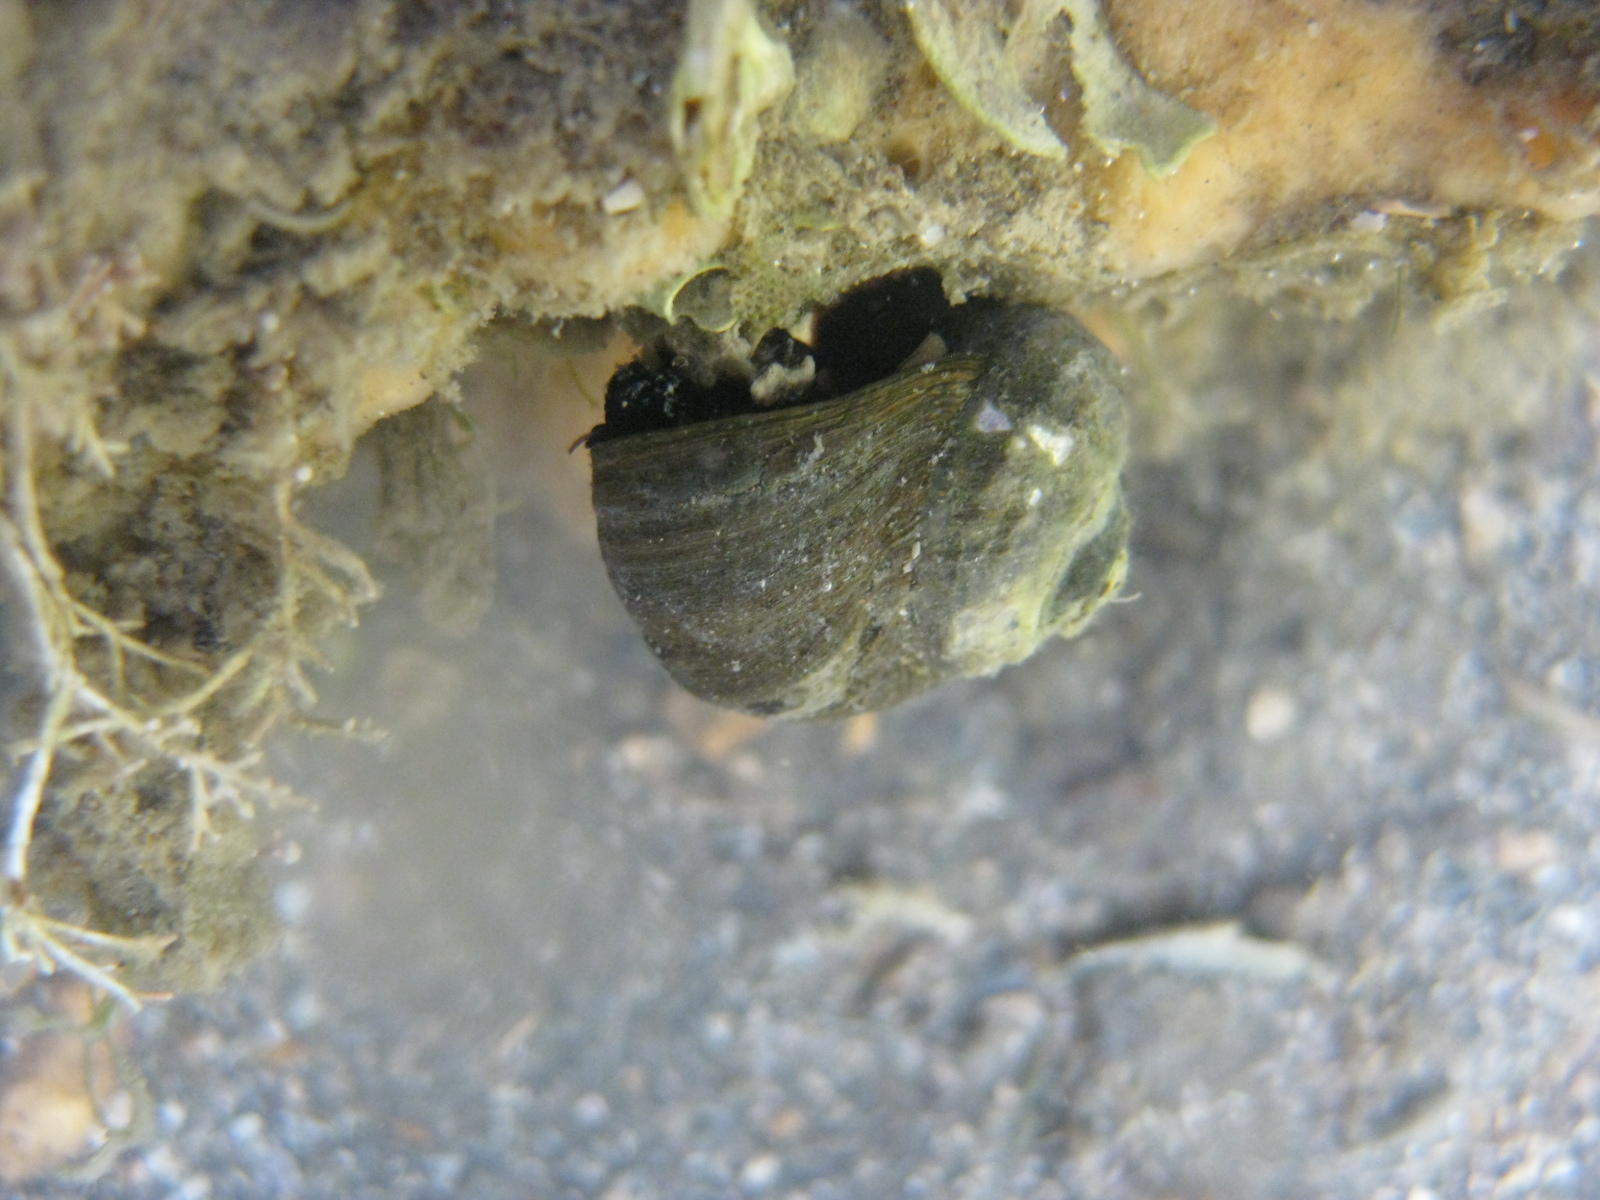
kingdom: Animalia
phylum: Mollusca
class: Gastropoda
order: Trochida
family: Turbinidae
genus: Lunella
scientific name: Lunella smaragda
